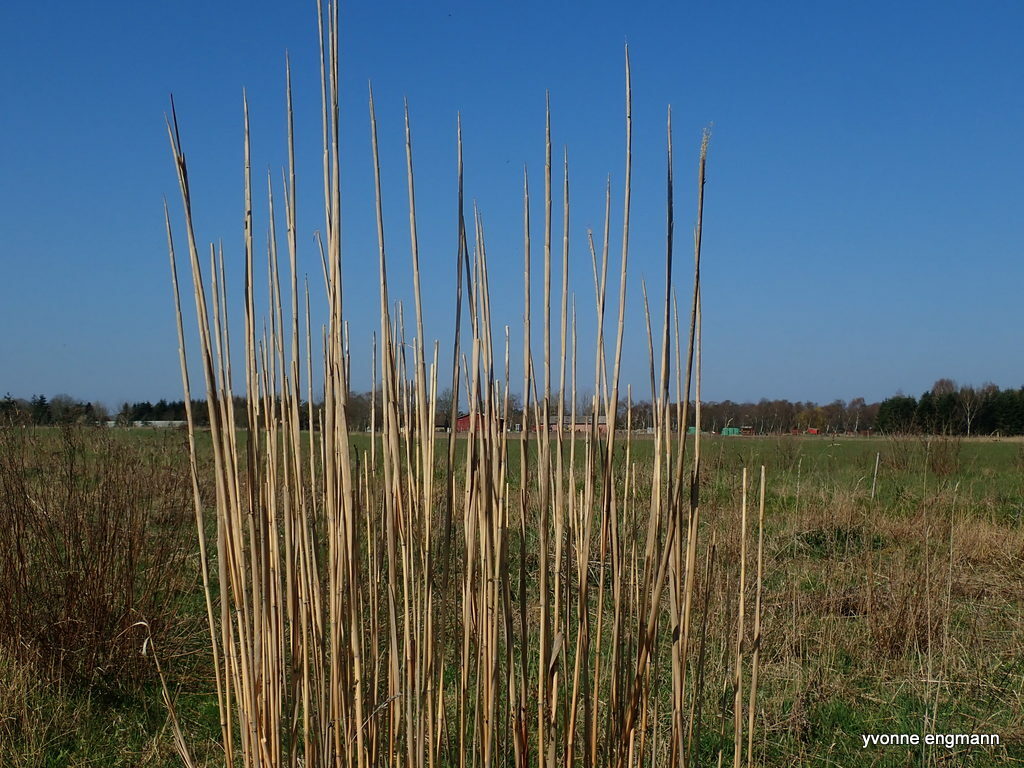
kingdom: Plantae
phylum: Tracheophyta
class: Liliopsida
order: Poales
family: Poaceae
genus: Phragmites
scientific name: Phragmites australis
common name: Common reed
